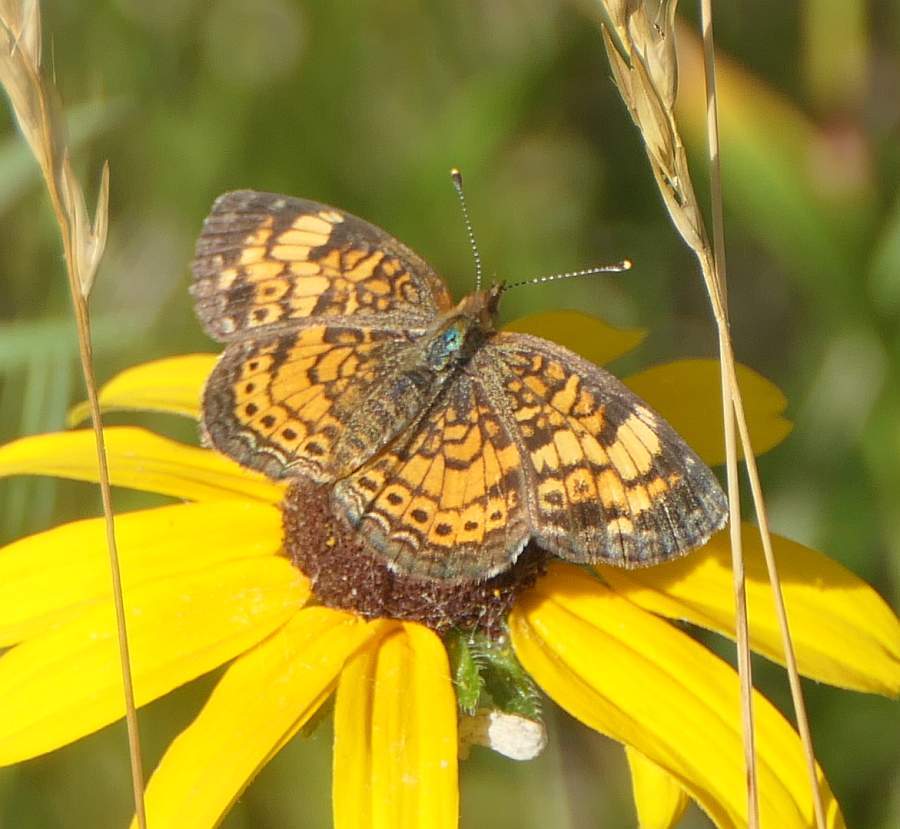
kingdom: Animalia
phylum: Arthropoda
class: Insecta
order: Lepidoptera
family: Nymphalidae
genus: Phyciodes
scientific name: Phyciodes tharos
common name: Pearl crescent
